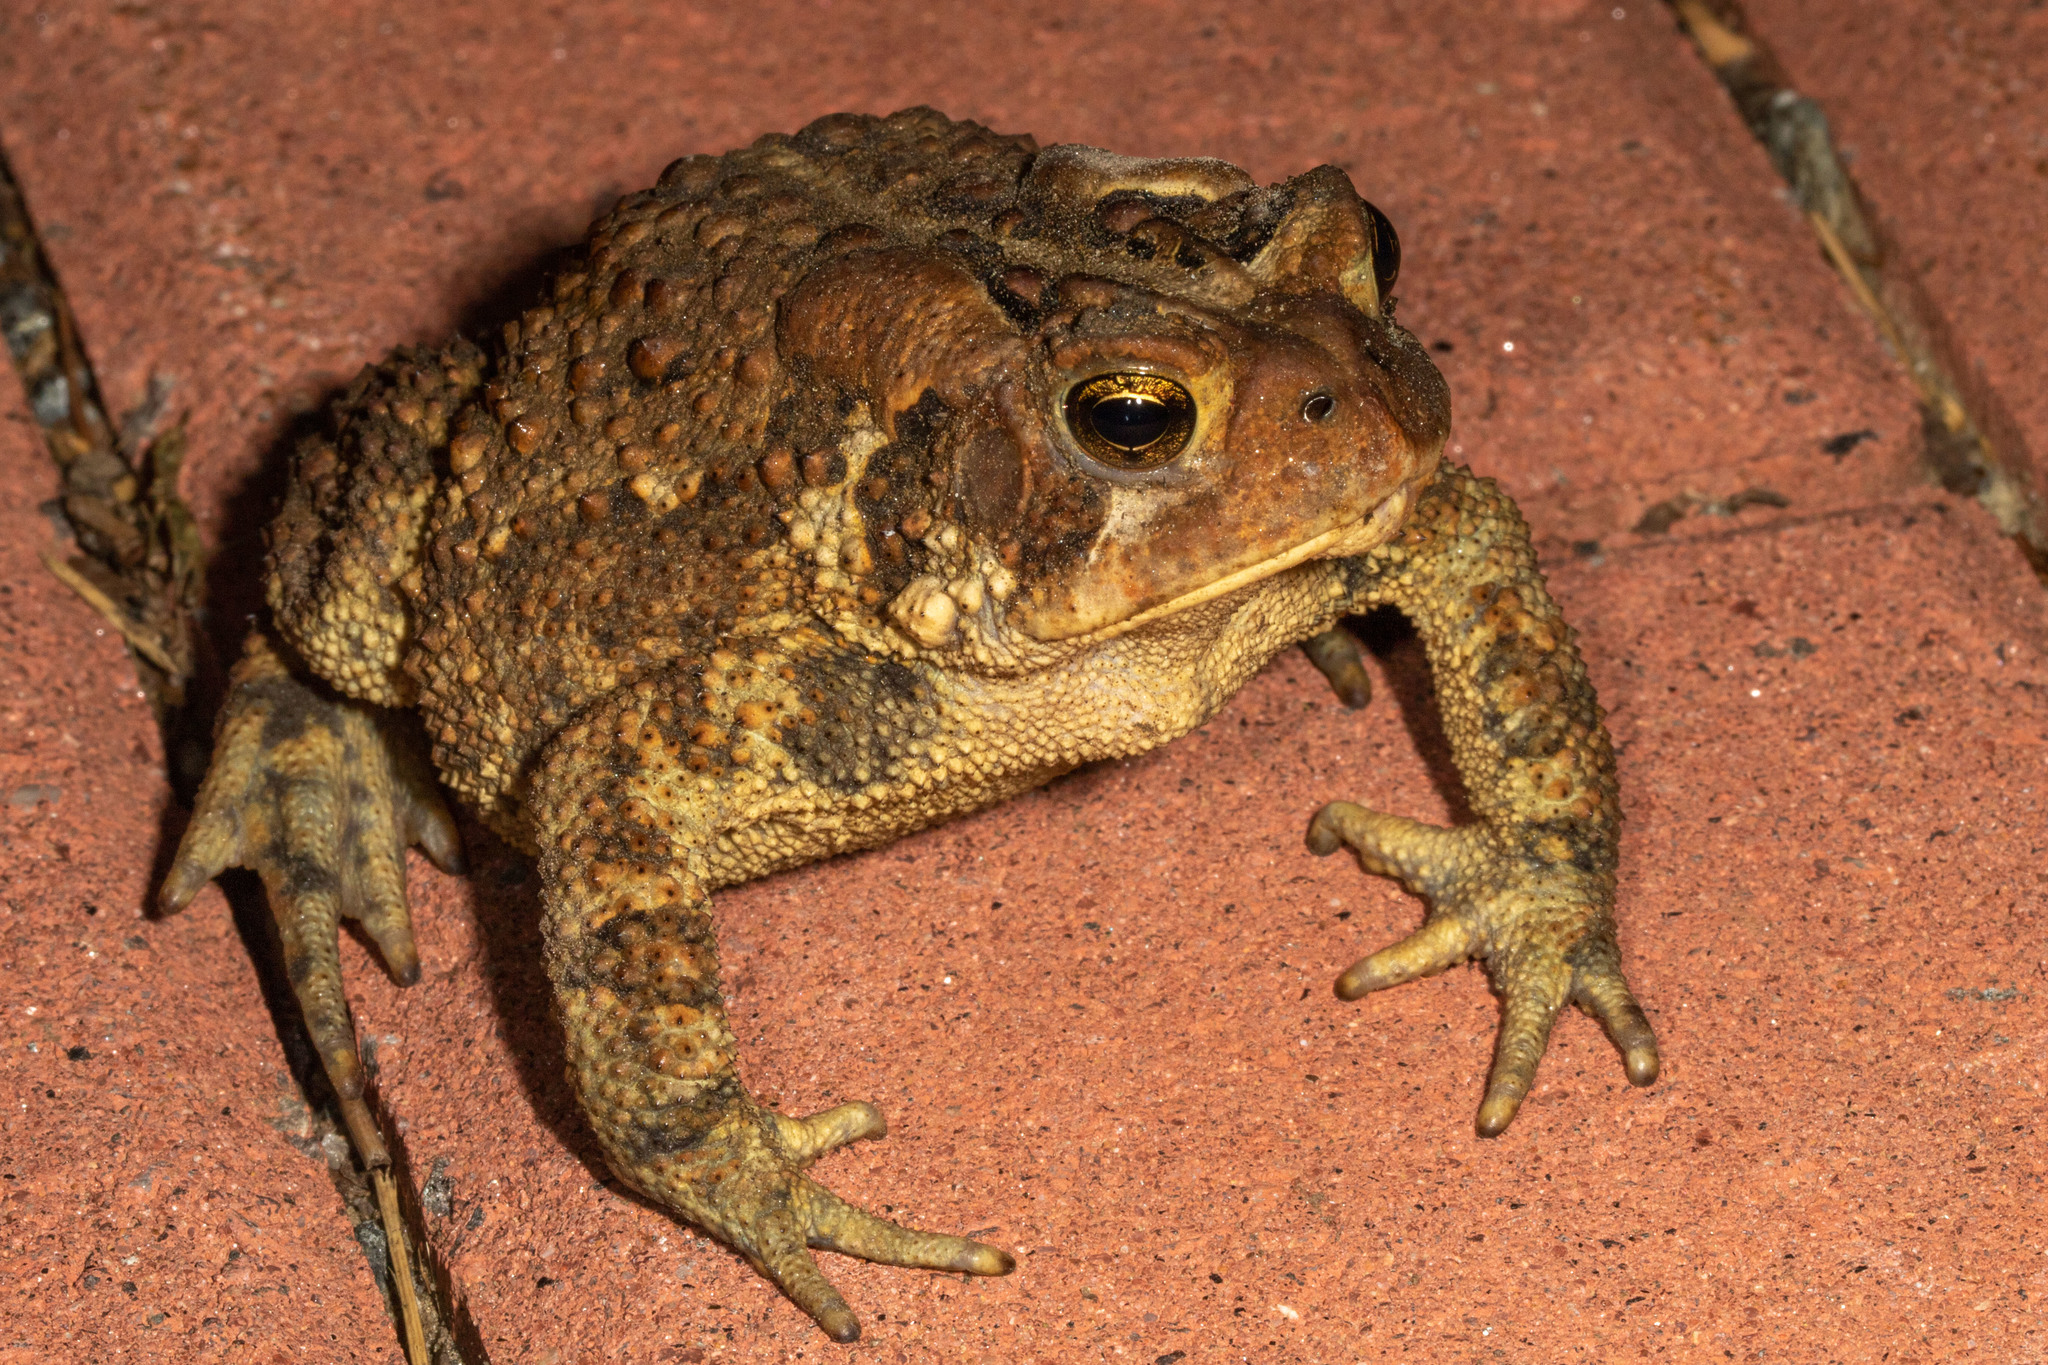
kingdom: Animalia
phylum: Chordata
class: Amphibia
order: Anura
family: Bufonidae
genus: Anaxyrus
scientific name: Anaxyrus americanus
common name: American toad
